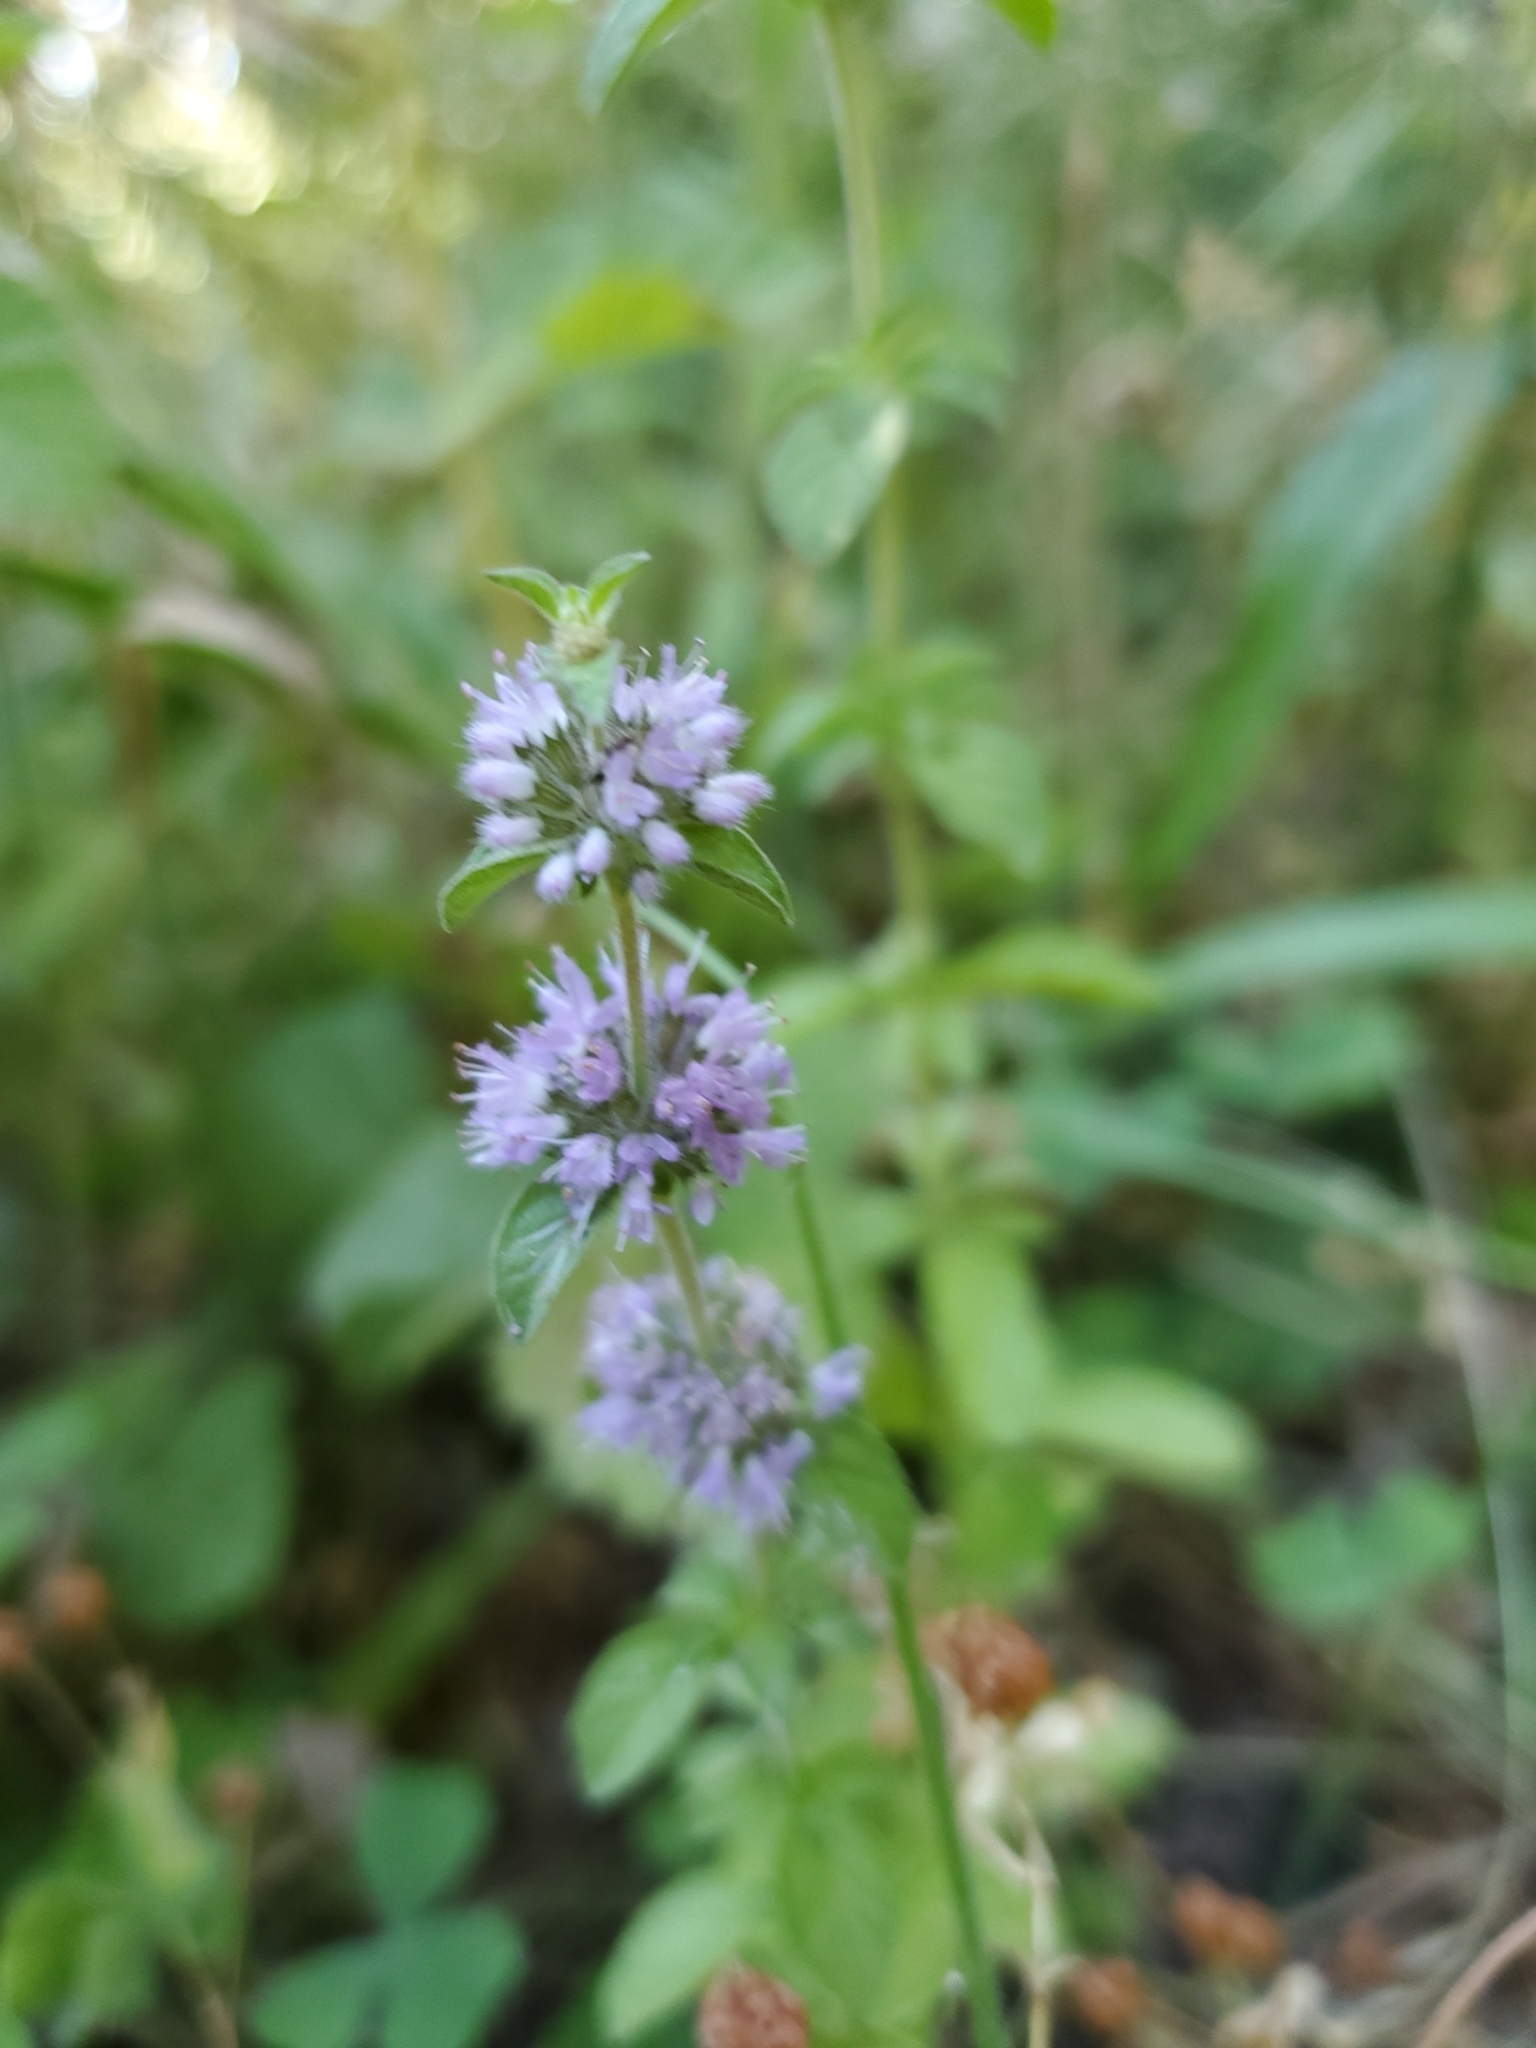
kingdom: Plantae
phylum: Tracheophyta
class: Magnoliopsida
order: Lamiales
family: Lamiaceae
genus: Mentha
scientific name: Mentha pulegium
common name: Pennyroyal
